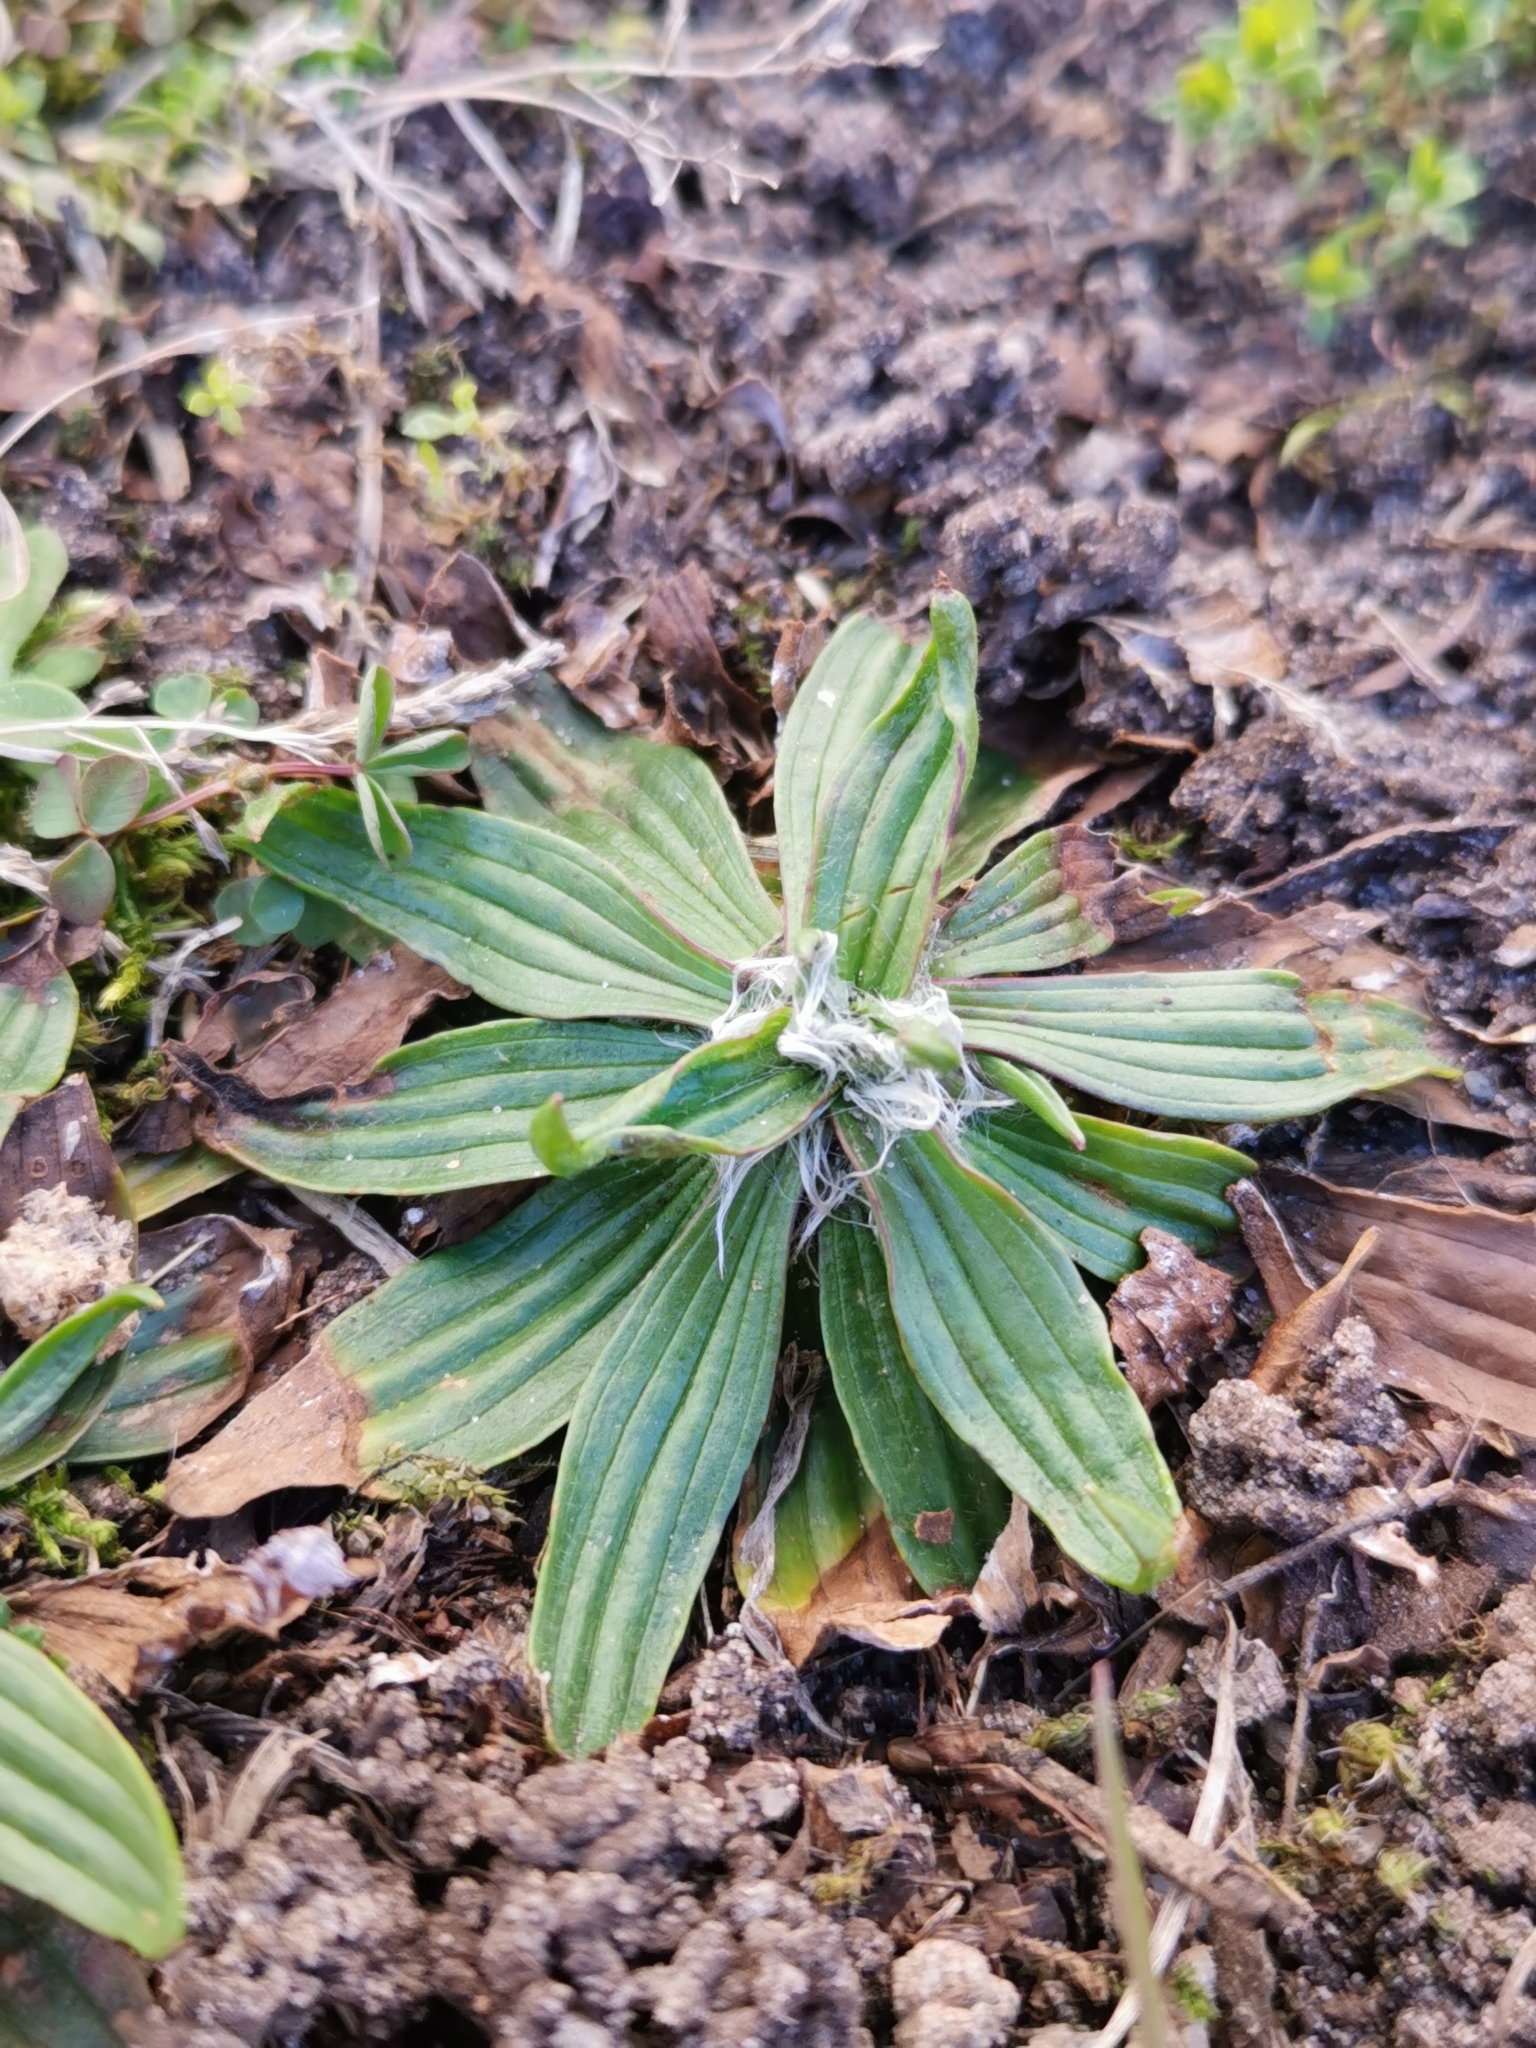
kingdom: Plantae
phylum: Tracheophyta
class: Magnoliopsida
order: Lamiales
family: Plantaginaceae
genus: Plantago
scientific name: Plantago lanceolata
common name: Ribwort plantain
